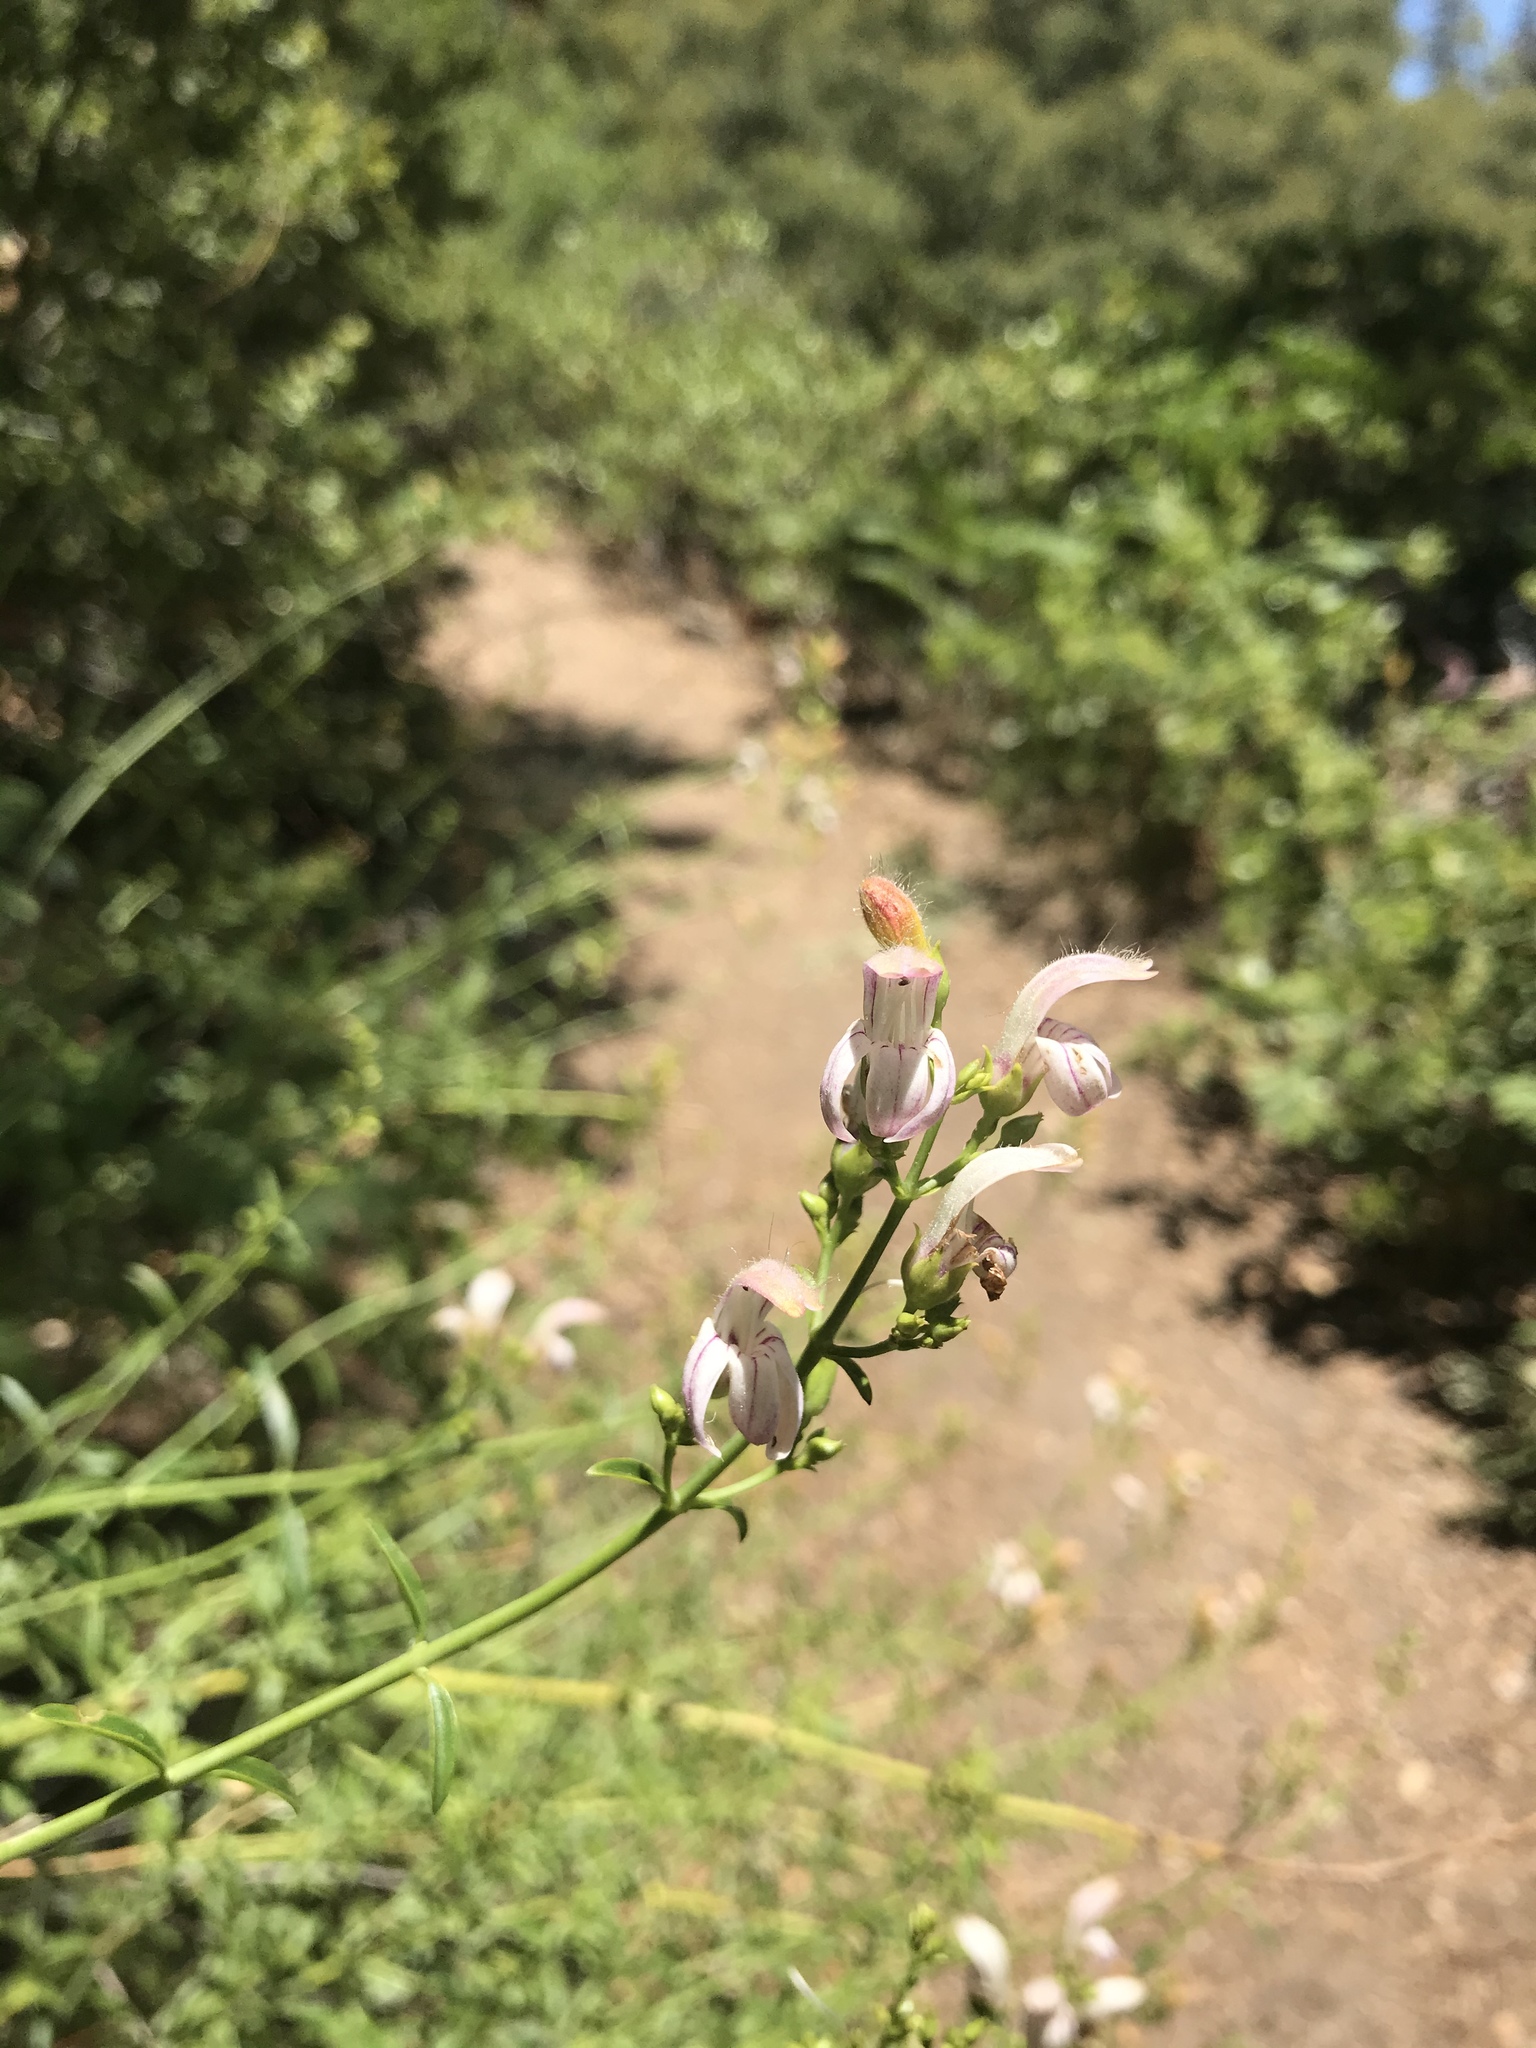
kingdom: Plantae
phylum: Tracheophyta
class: Magnoliopsida
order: Lamiales
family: Plantaginaceae
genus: Keckiella
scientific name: Keckiella breviflora
